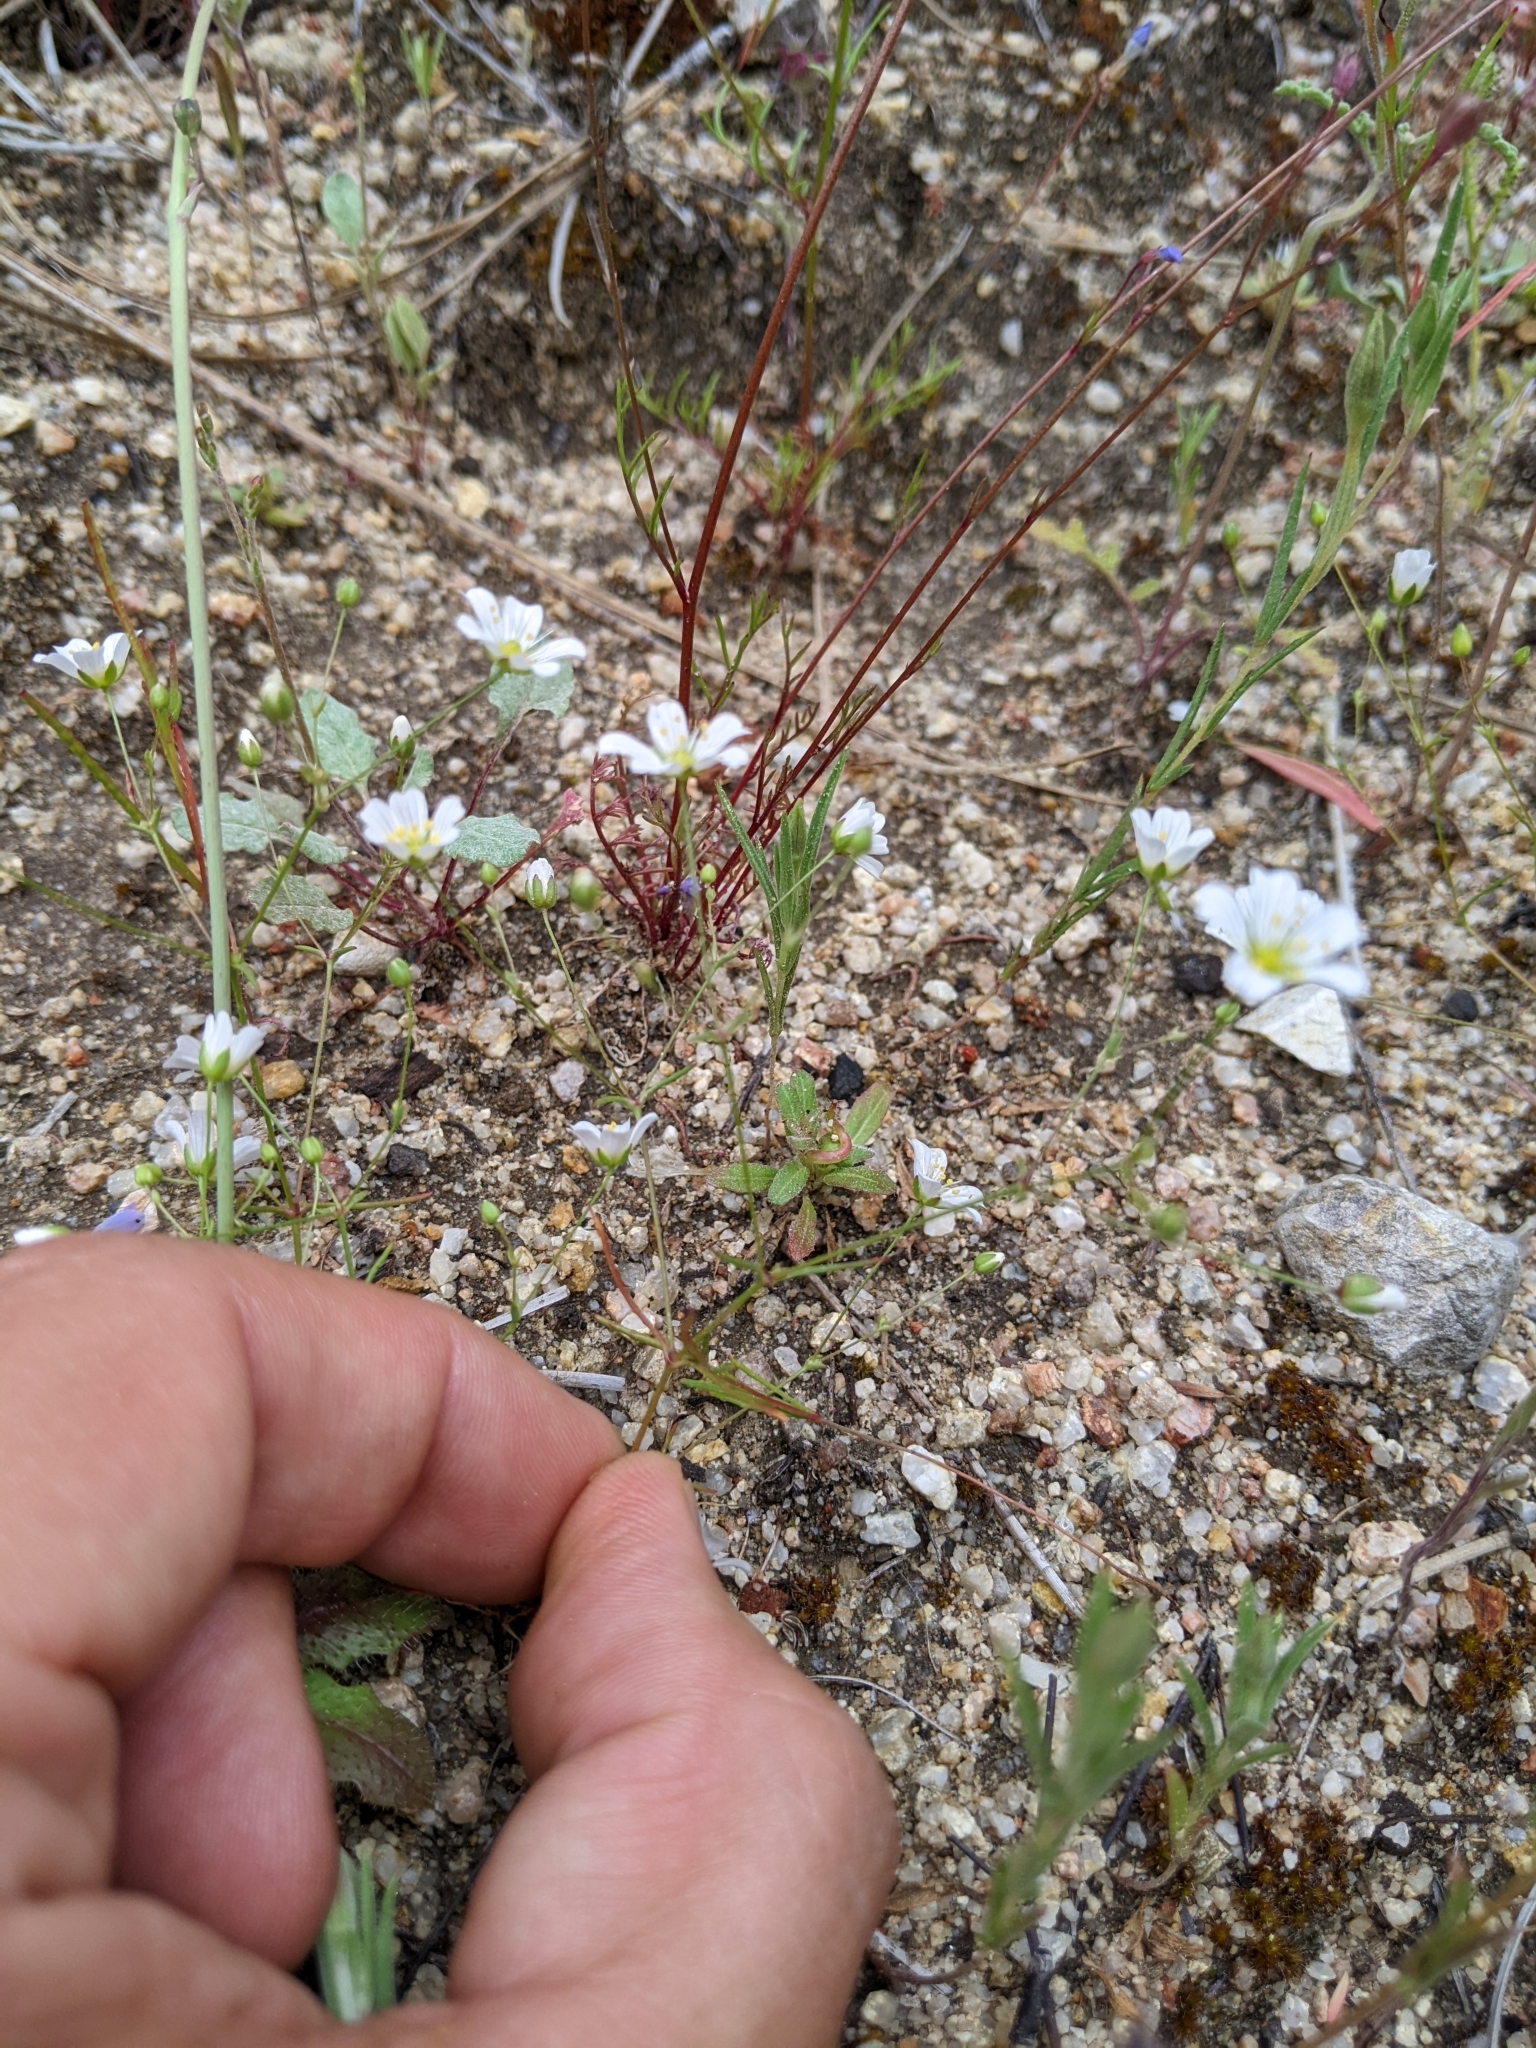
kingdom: Plantae
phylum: Tracheophyta
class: Magnoliopsida
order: Caryophyllales
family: Caryophyllaceae
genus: Sabulina
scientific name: Sabulina douglasii
